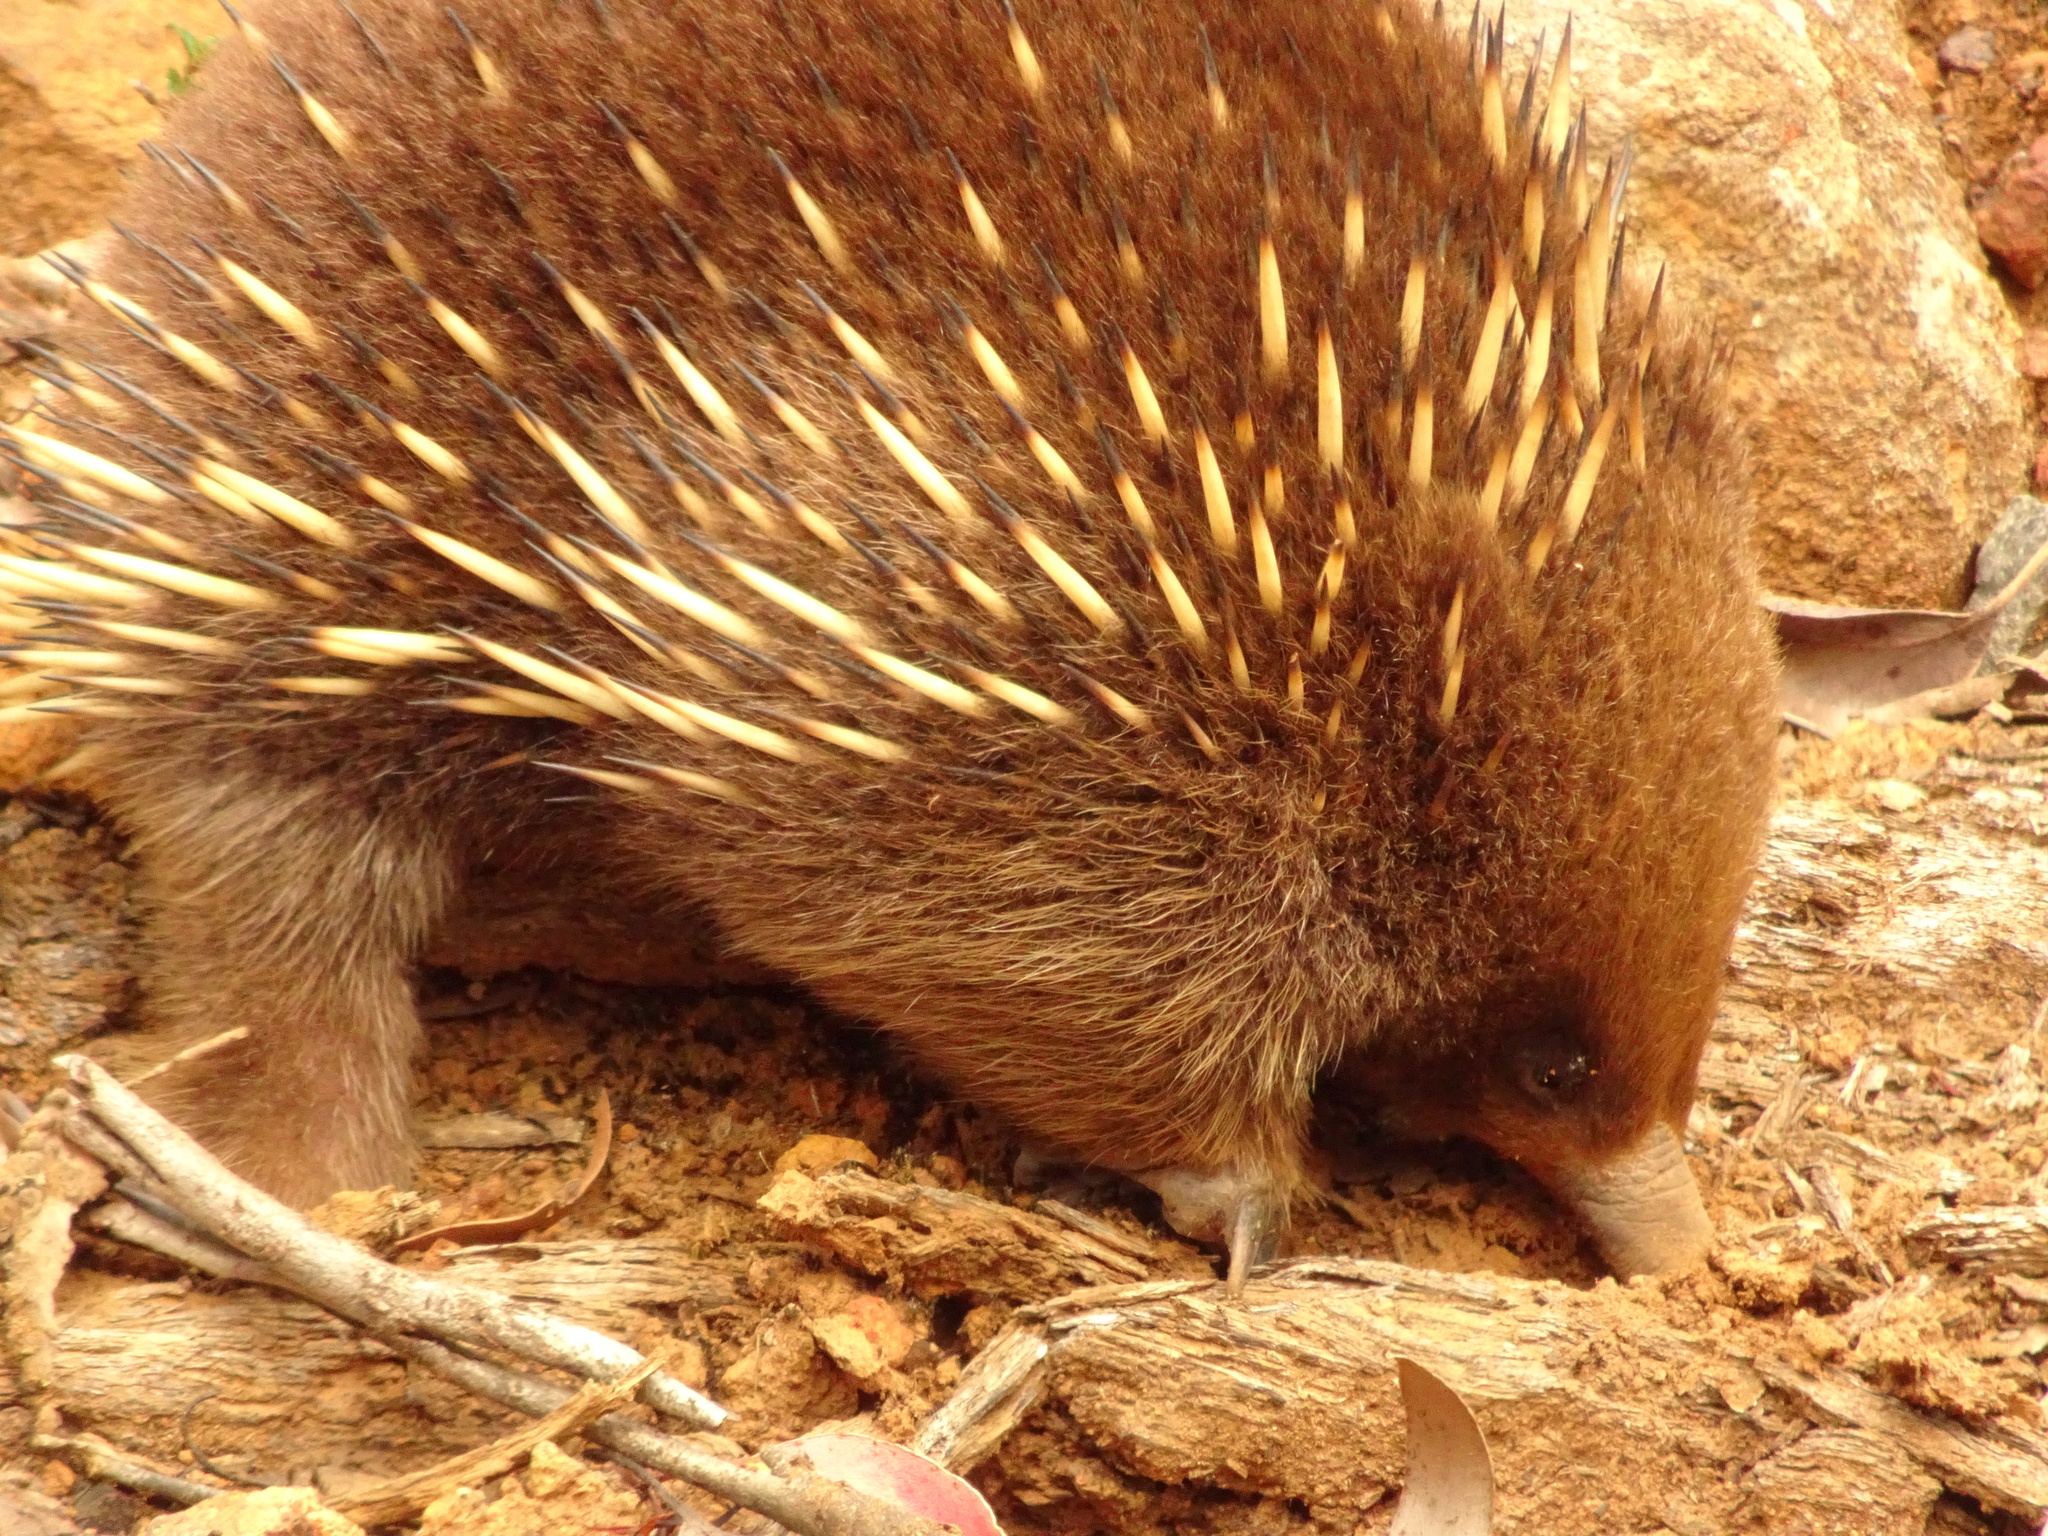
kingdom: Animalia
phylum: Chordata
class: Mammalia
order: Monotremata
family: Tachyglossidae
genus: Tachyglossus
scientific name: Tachyglossus aculeatus
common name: Short-beaked echidna
